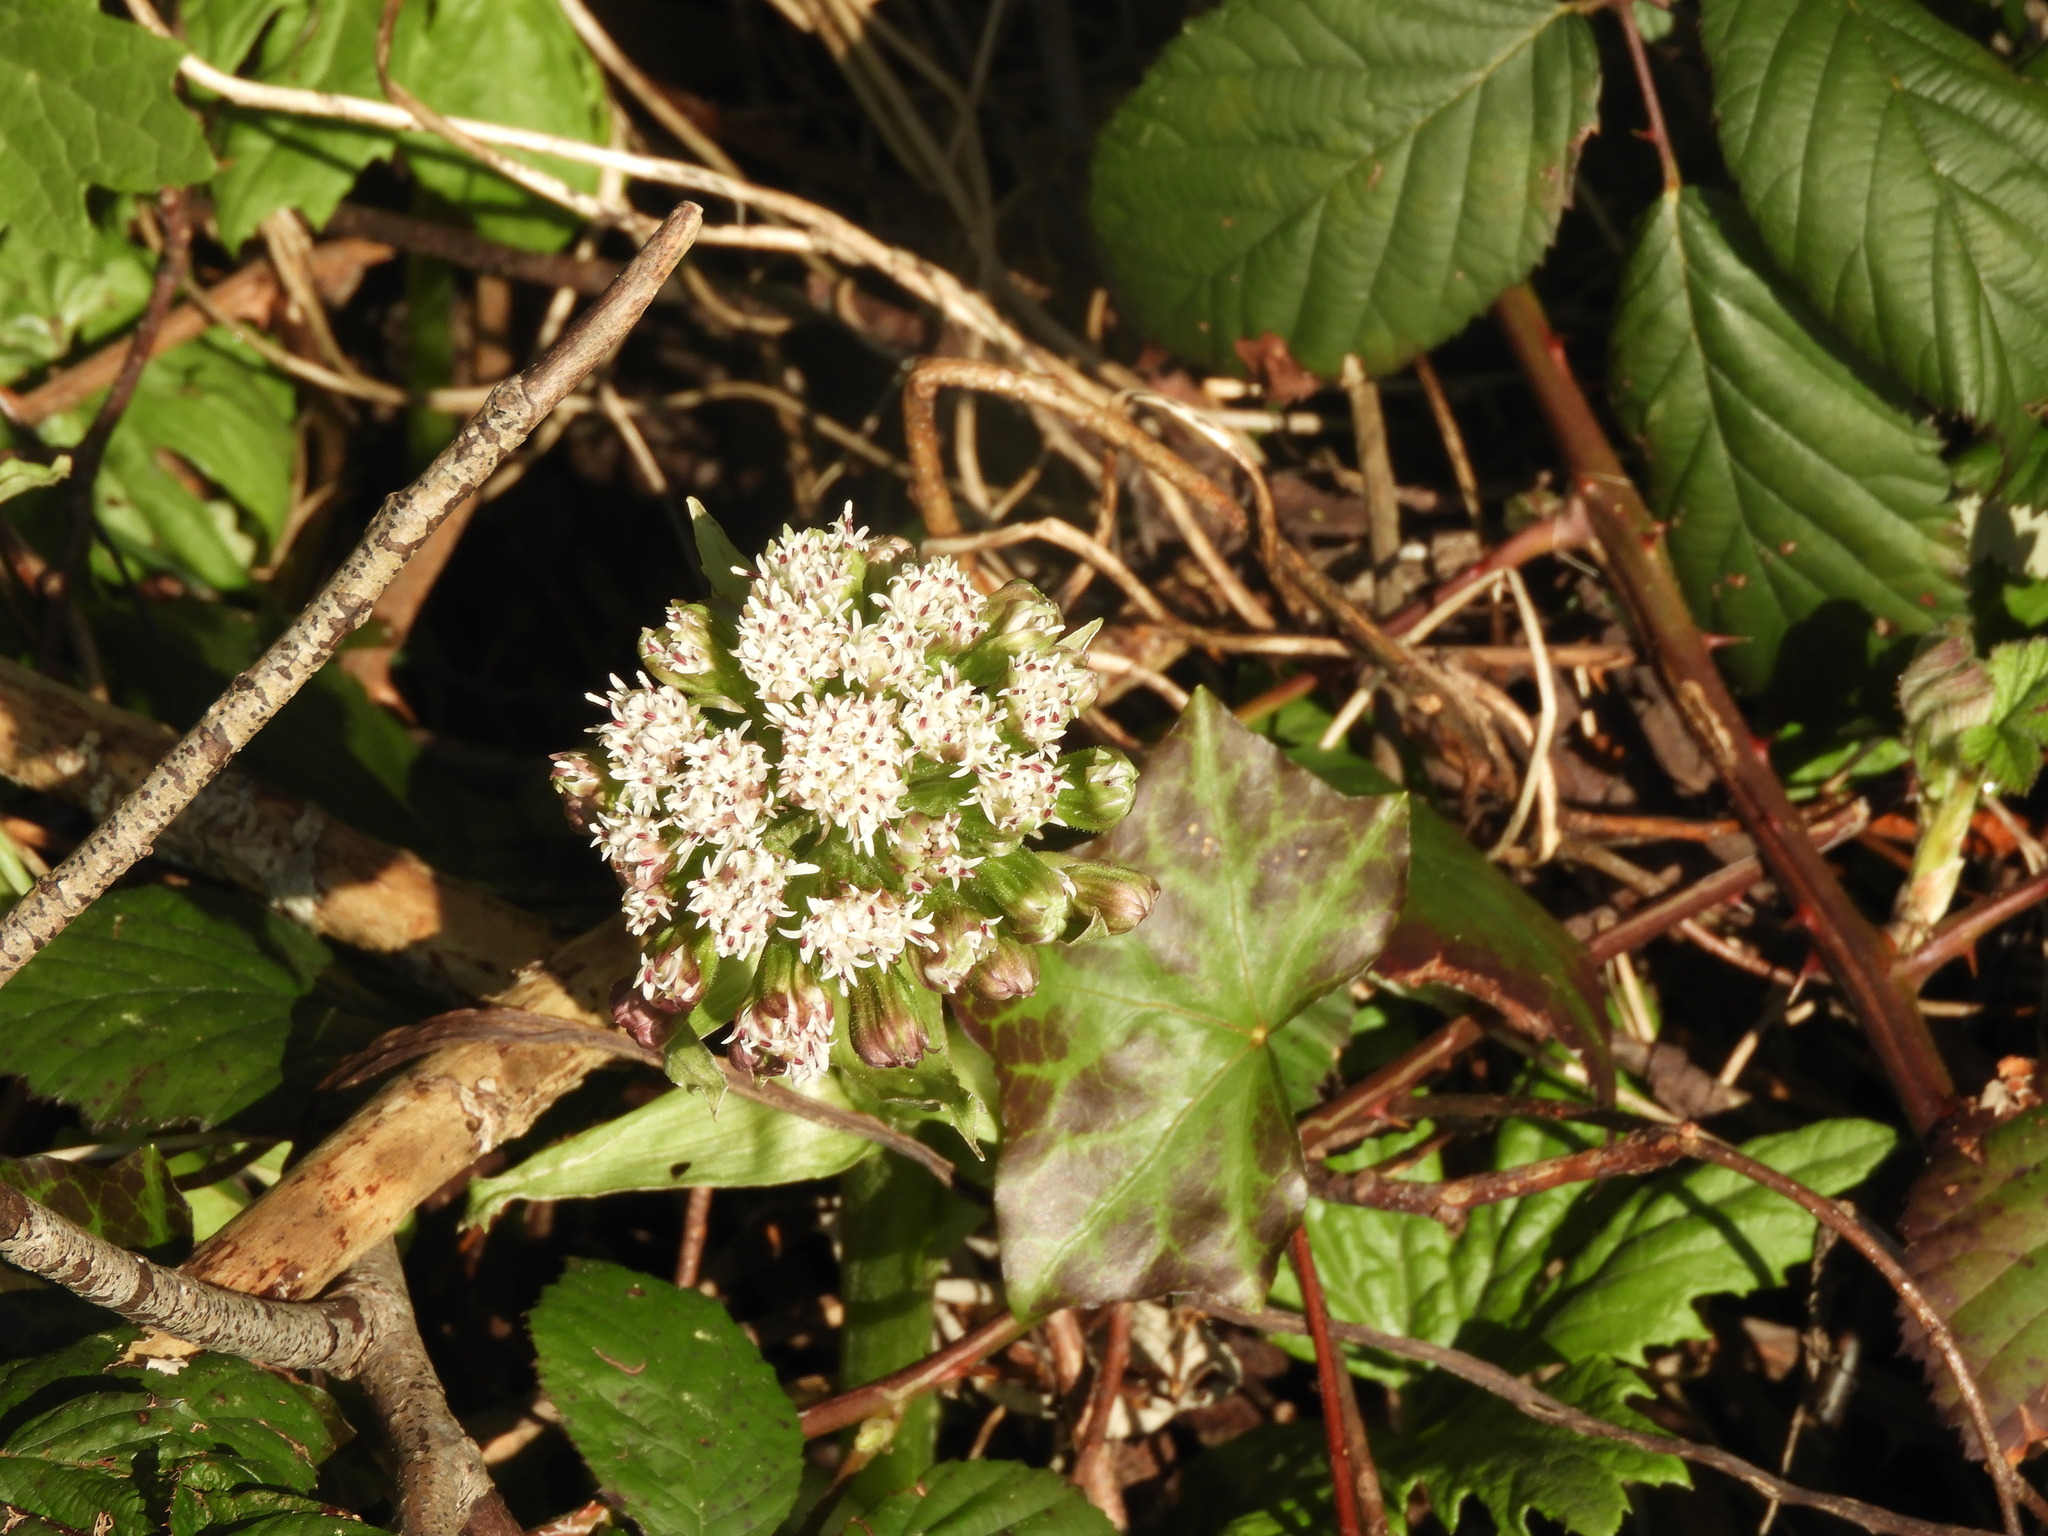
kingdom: Plantae
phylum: Tracheophyta
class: Magnoliopsida
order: Asterales
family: Asteraceae
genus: Petasites
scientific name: Petasites frigidus
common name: Arctic butterbur
